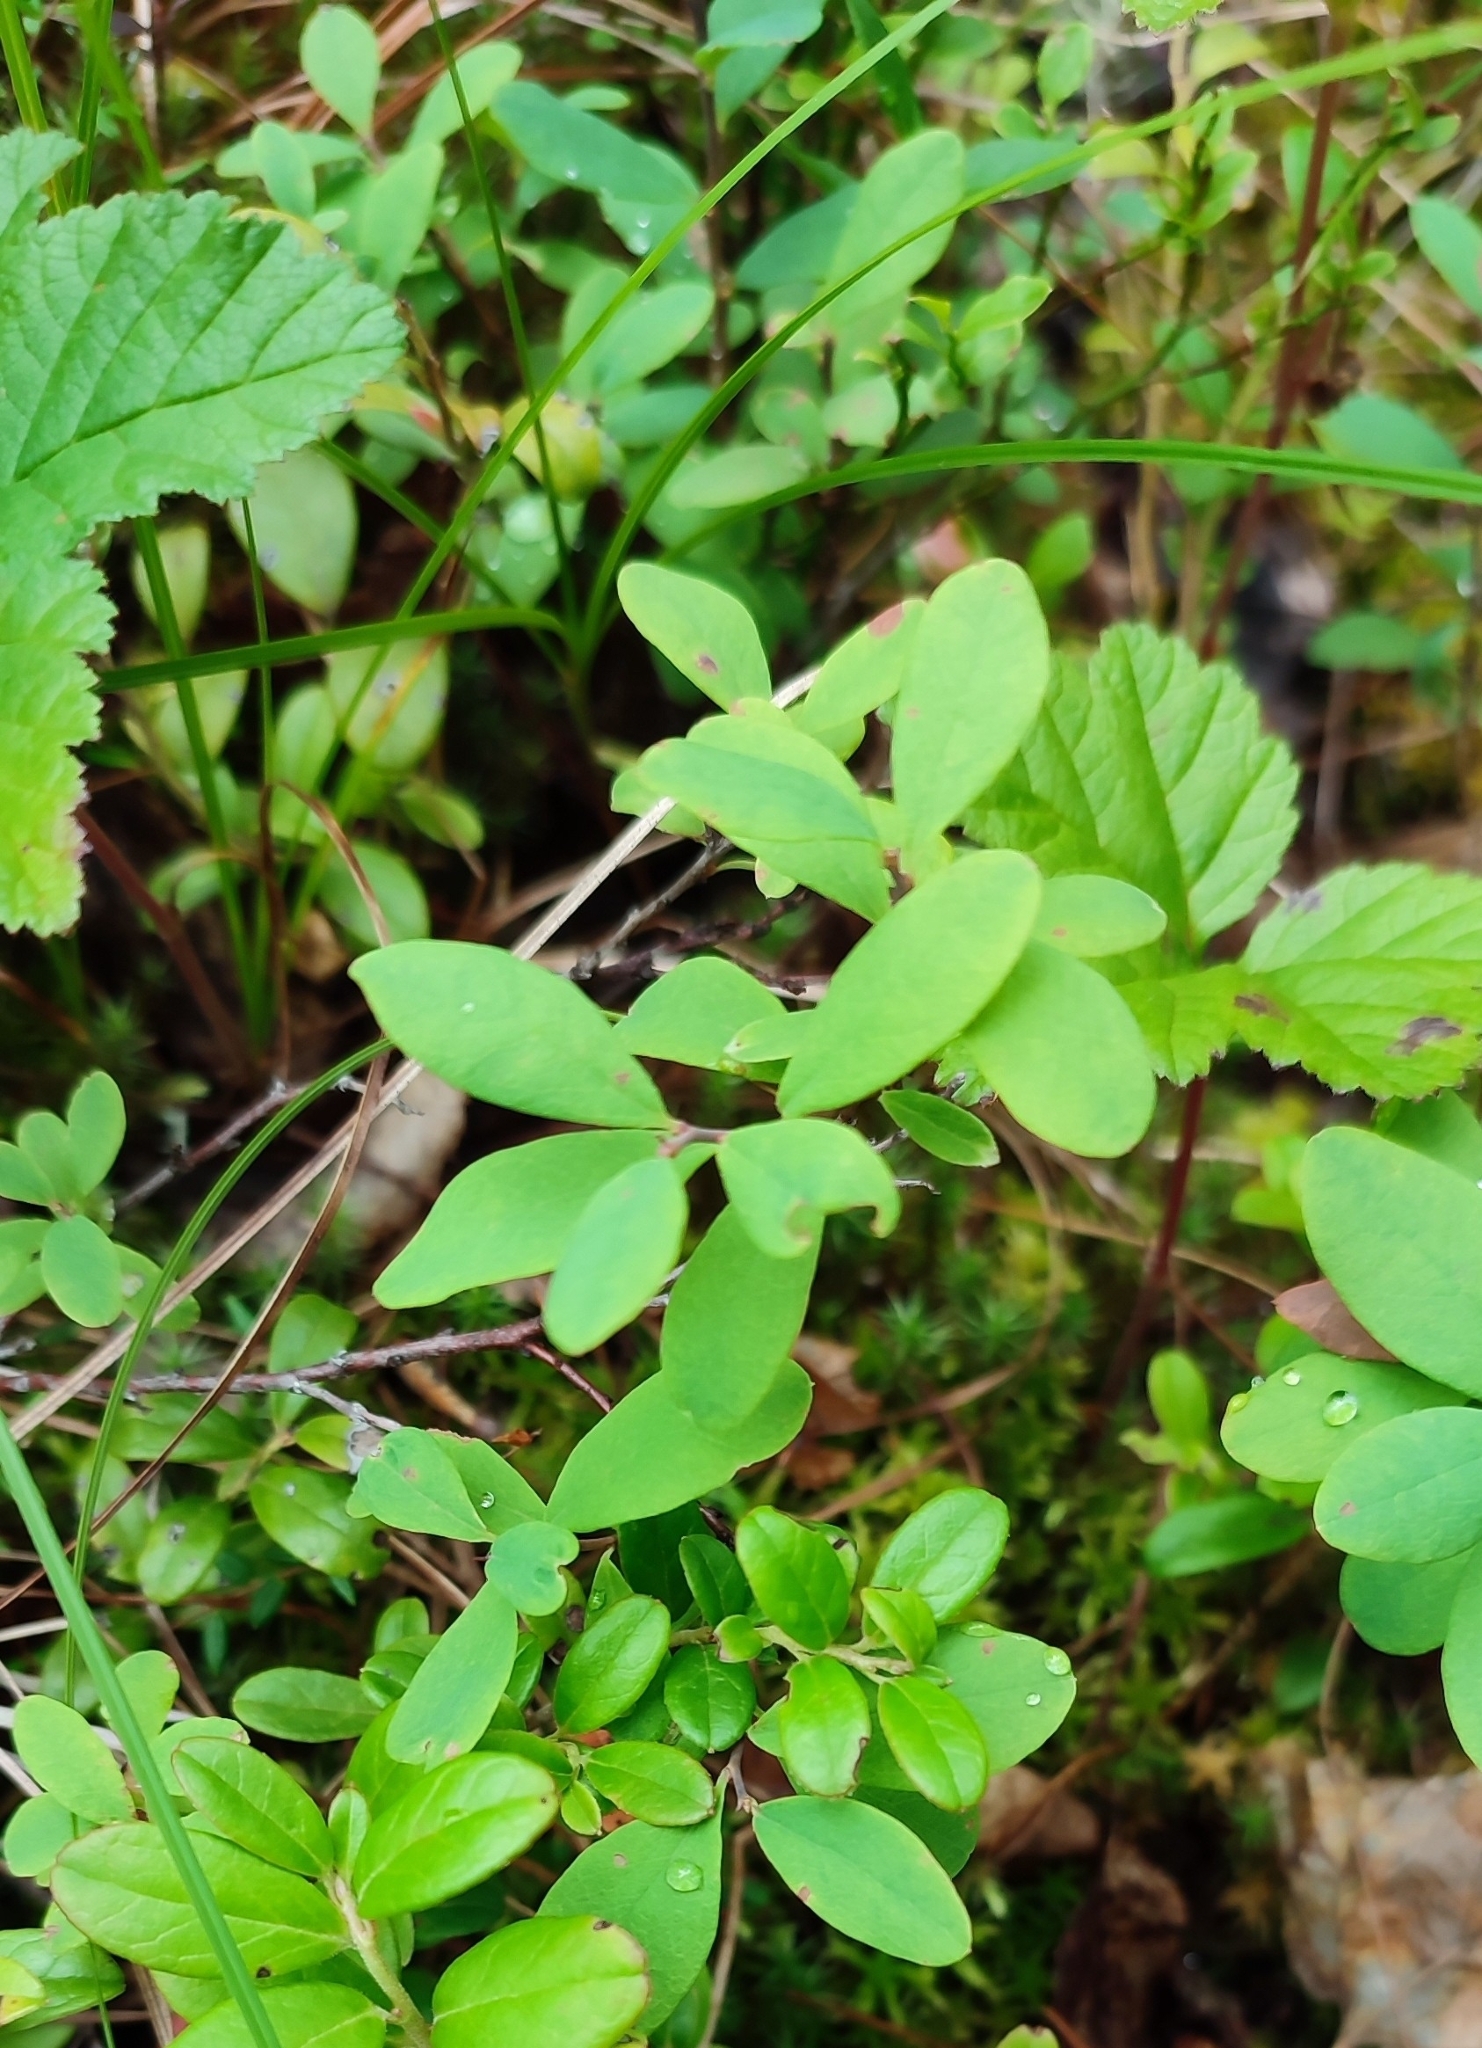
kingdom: Plantae
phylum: Tracheophyta
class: Magnoliopsida
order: Ericales
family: Ericaceae
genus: Vaccinium
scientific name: Vaccinium uliginosum
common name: Bog bilberry
